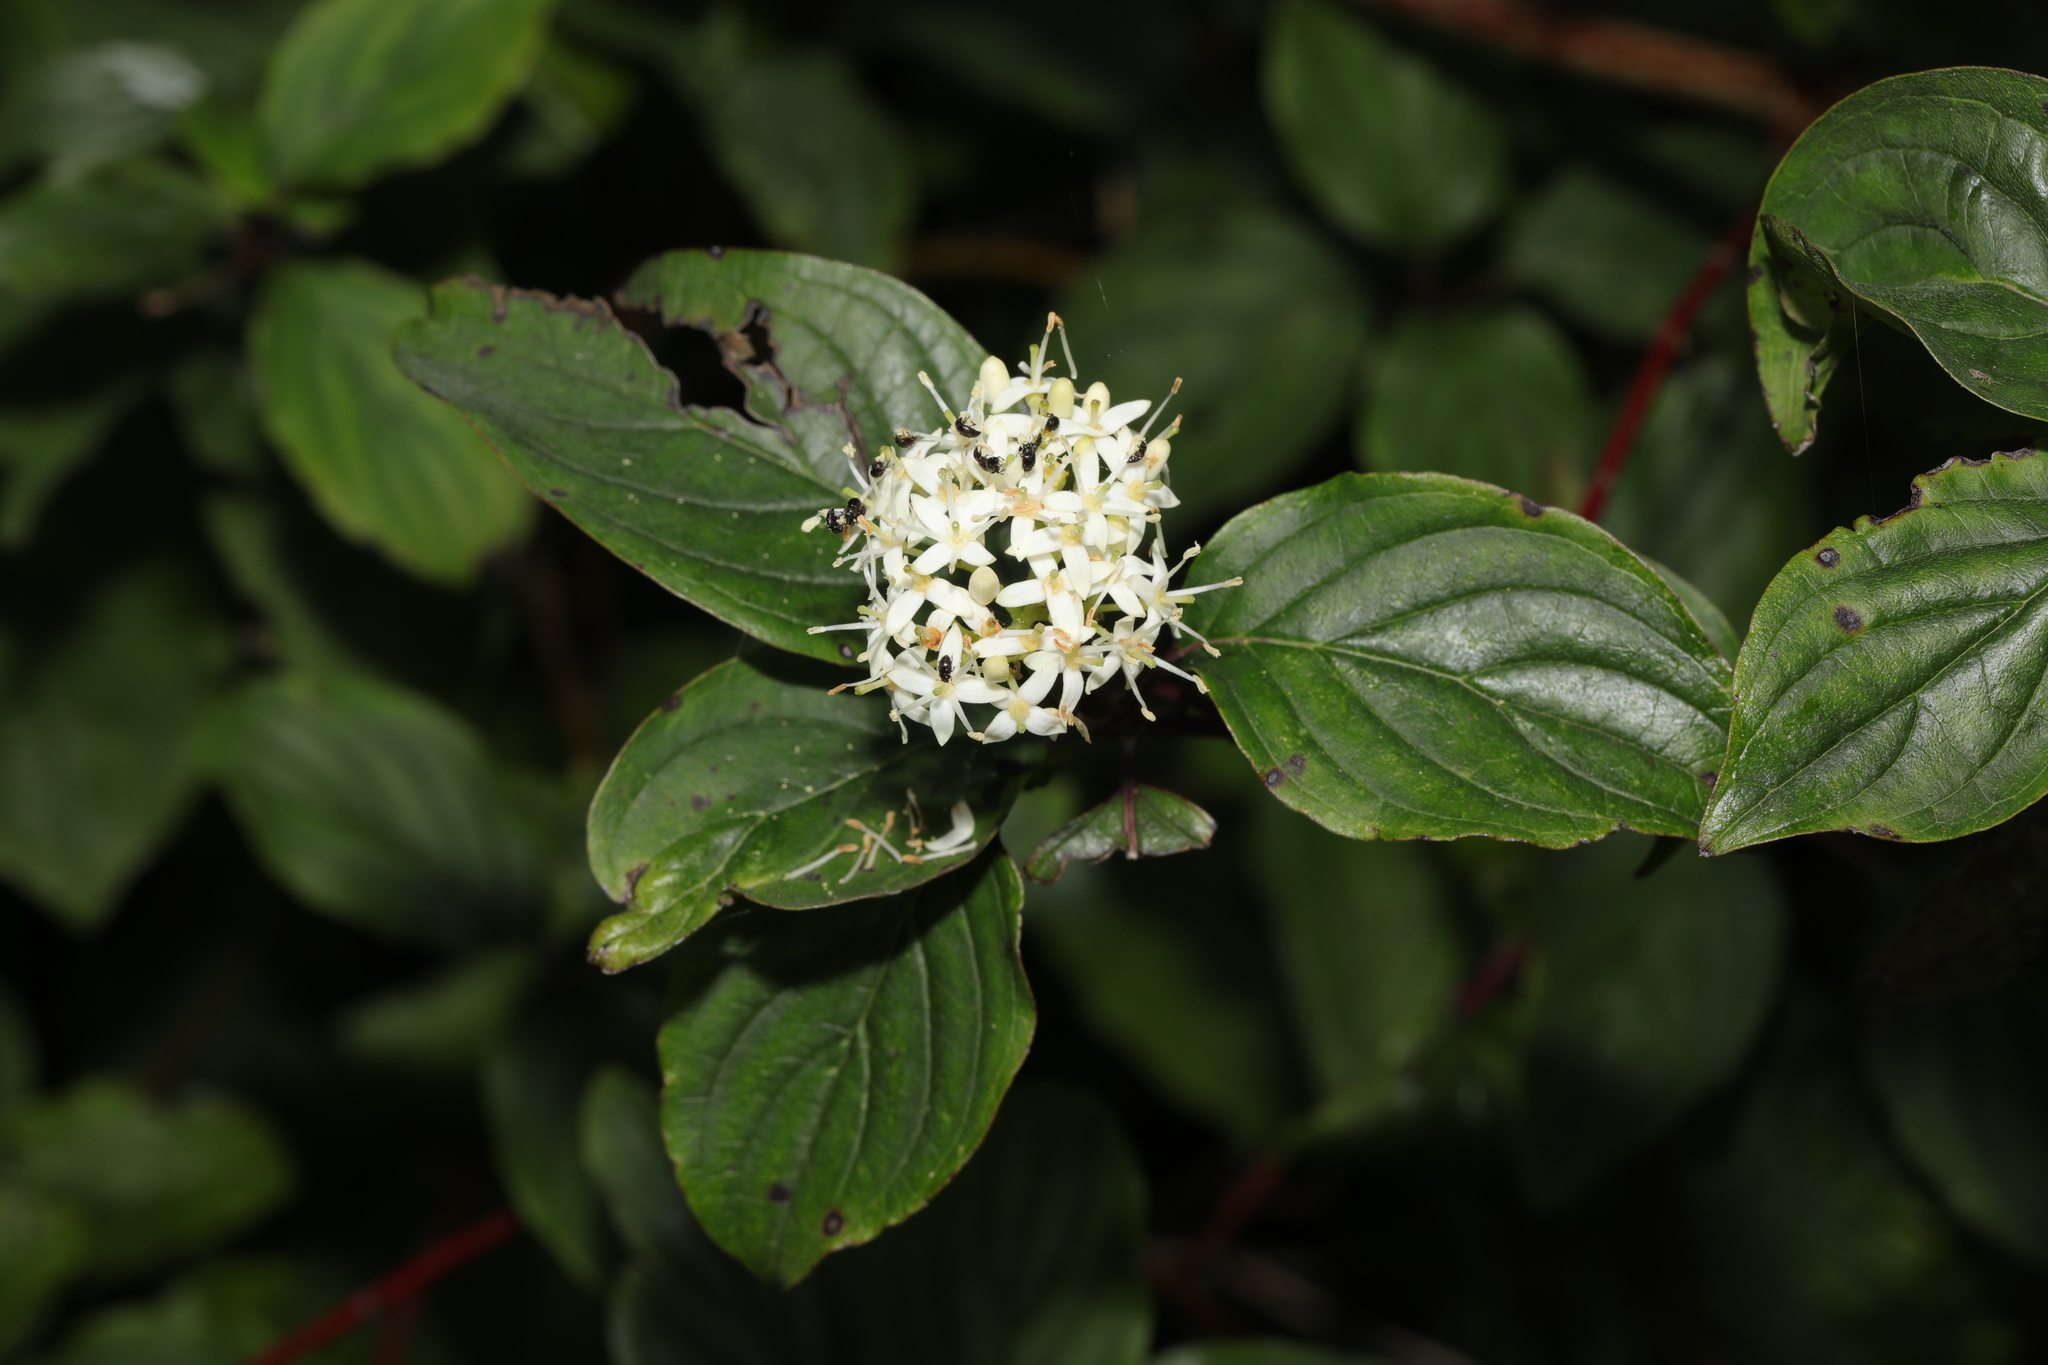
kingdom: Plantae
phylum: Tracheophyta
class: Magnoliopsida
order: Cornales
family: Cornaceae
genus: Cornus
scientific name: Cornus sericea
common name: Red-osier dogwood
